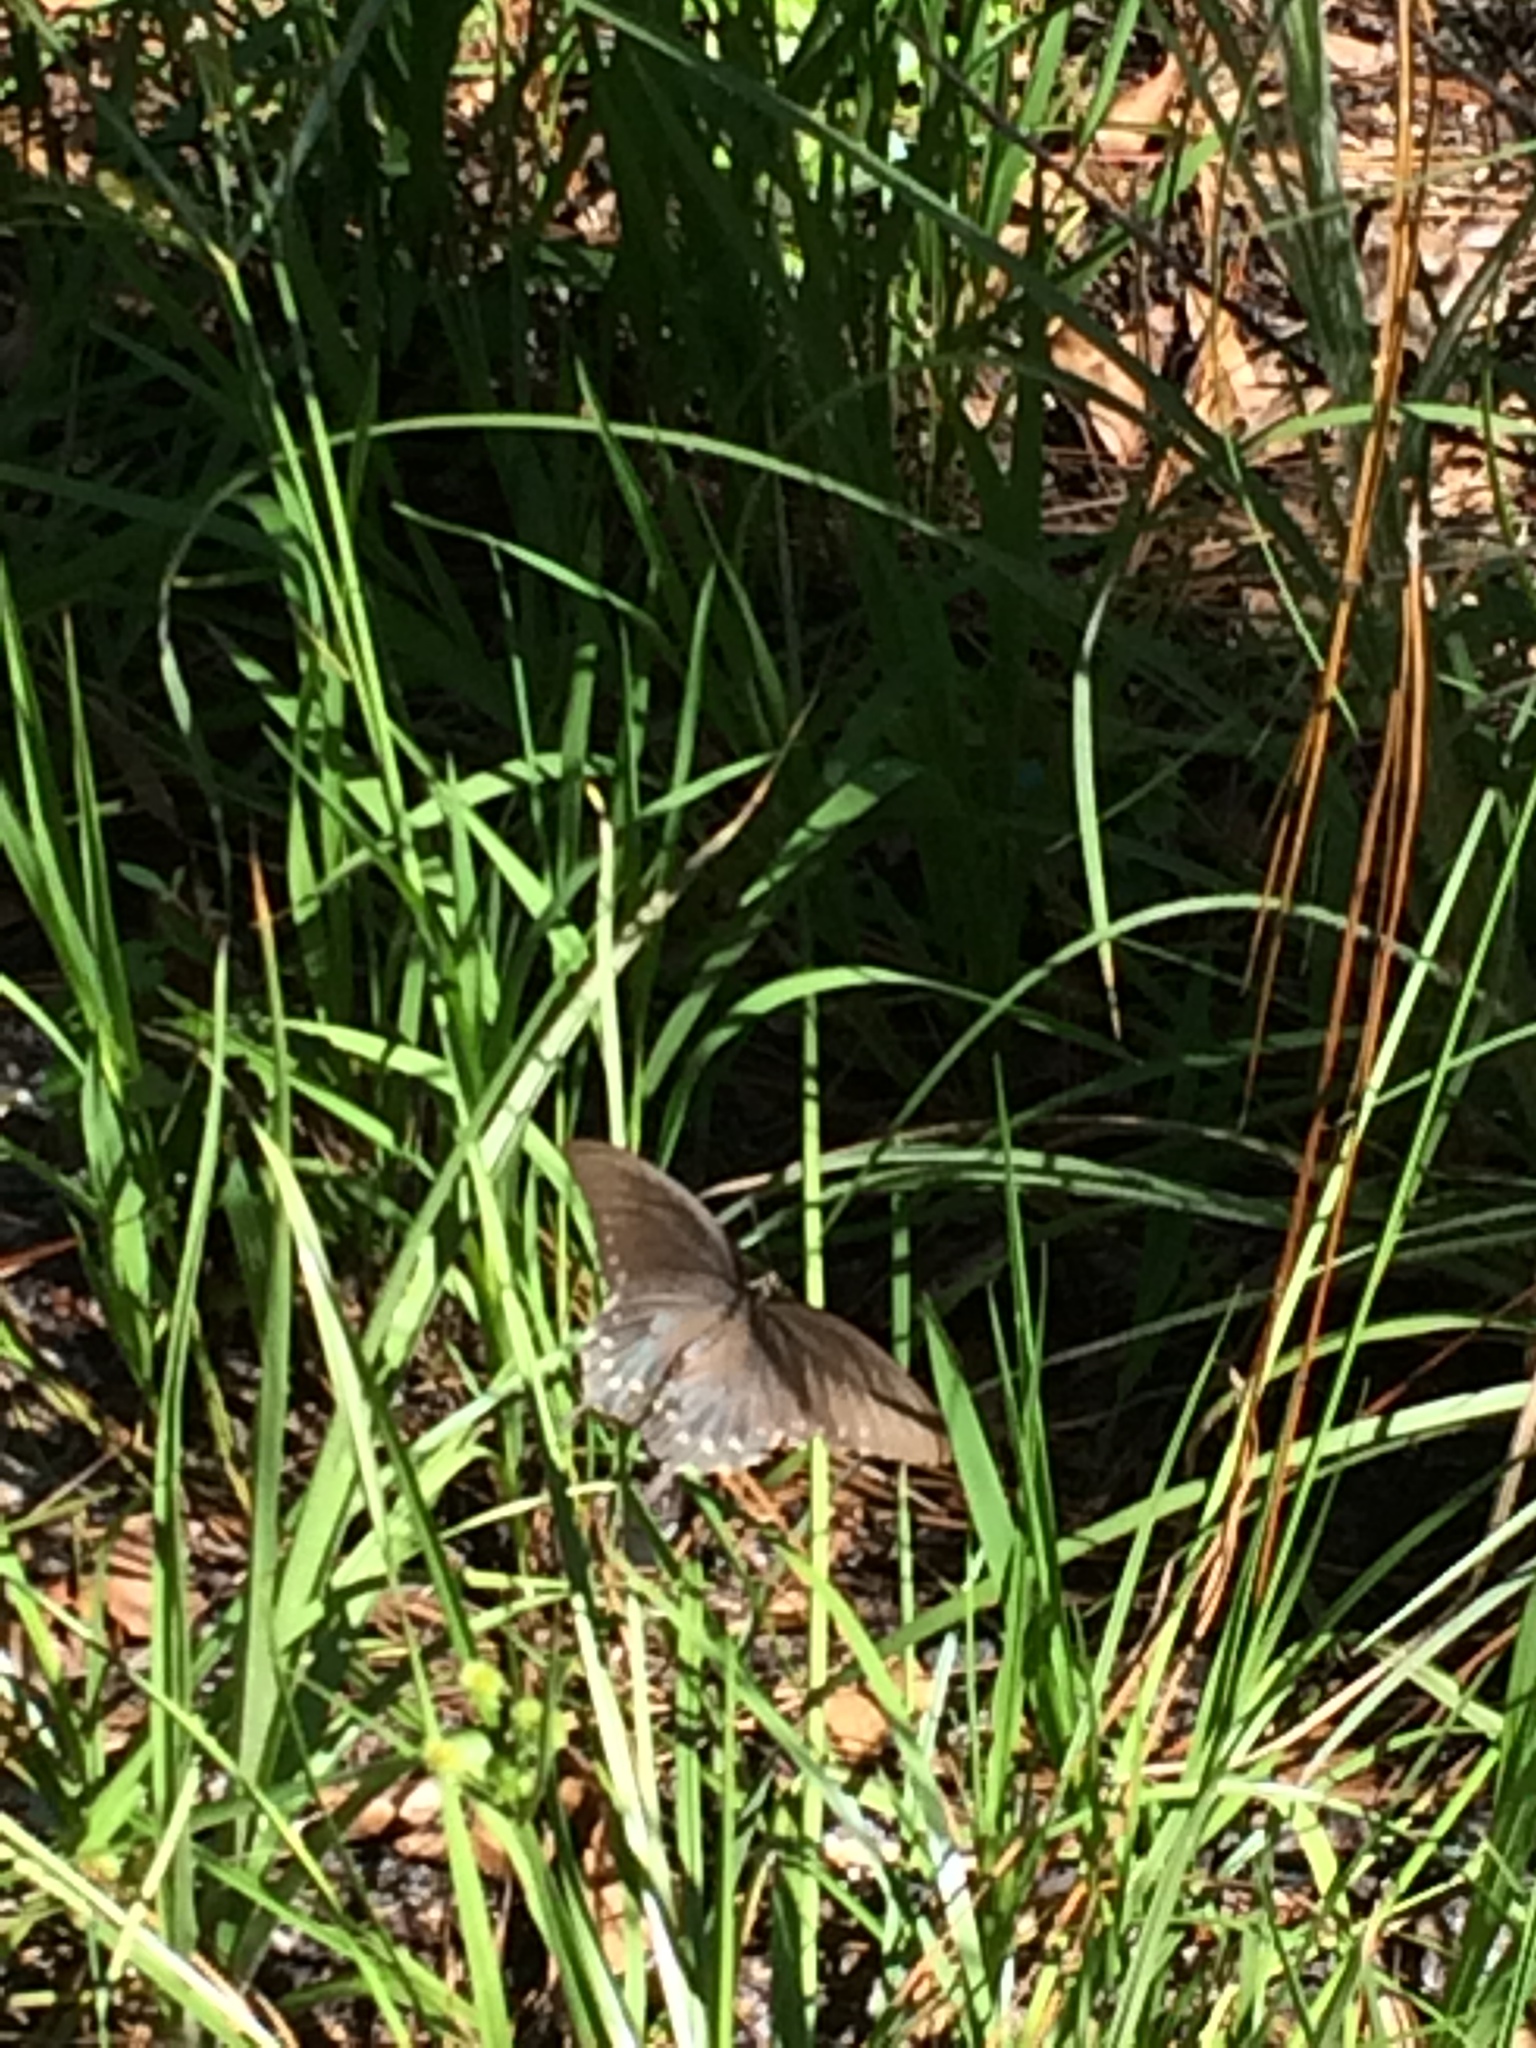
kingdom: Animalia
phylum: Arthropoda
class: Insecta
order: Lepidoptera
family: Papilionidae
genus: Battus
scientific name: Battus philenor
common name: Pipevine swallowtail
